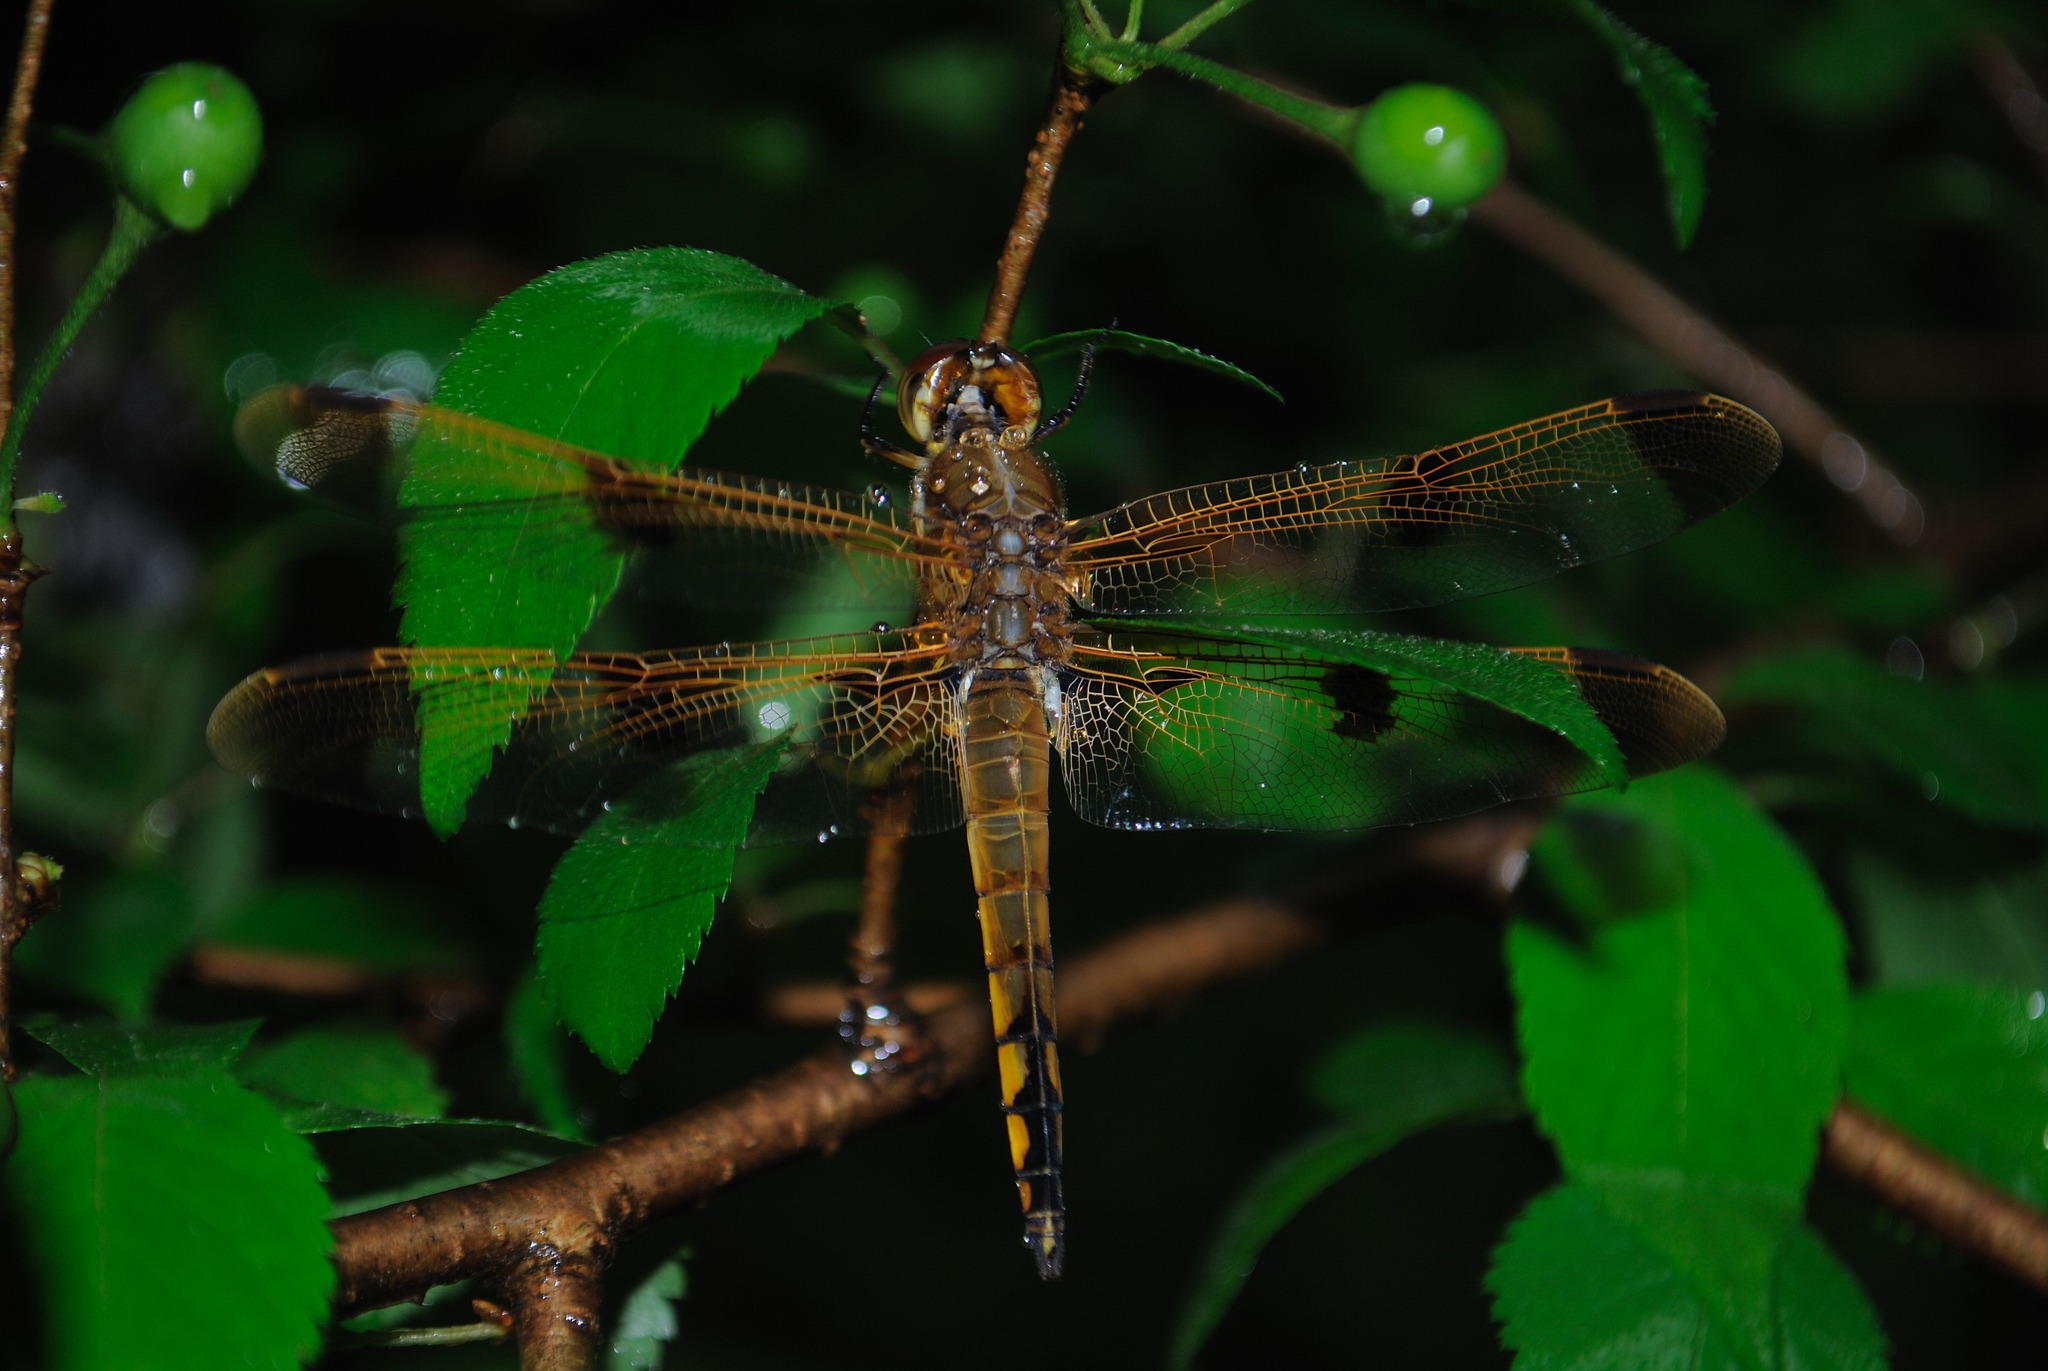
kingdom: Animalia
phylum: Arthropoda
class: Insecta
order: Odonata
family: Libellulidae
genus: Libellula
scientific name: Libellula semifasciata
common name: Painted skimmer
